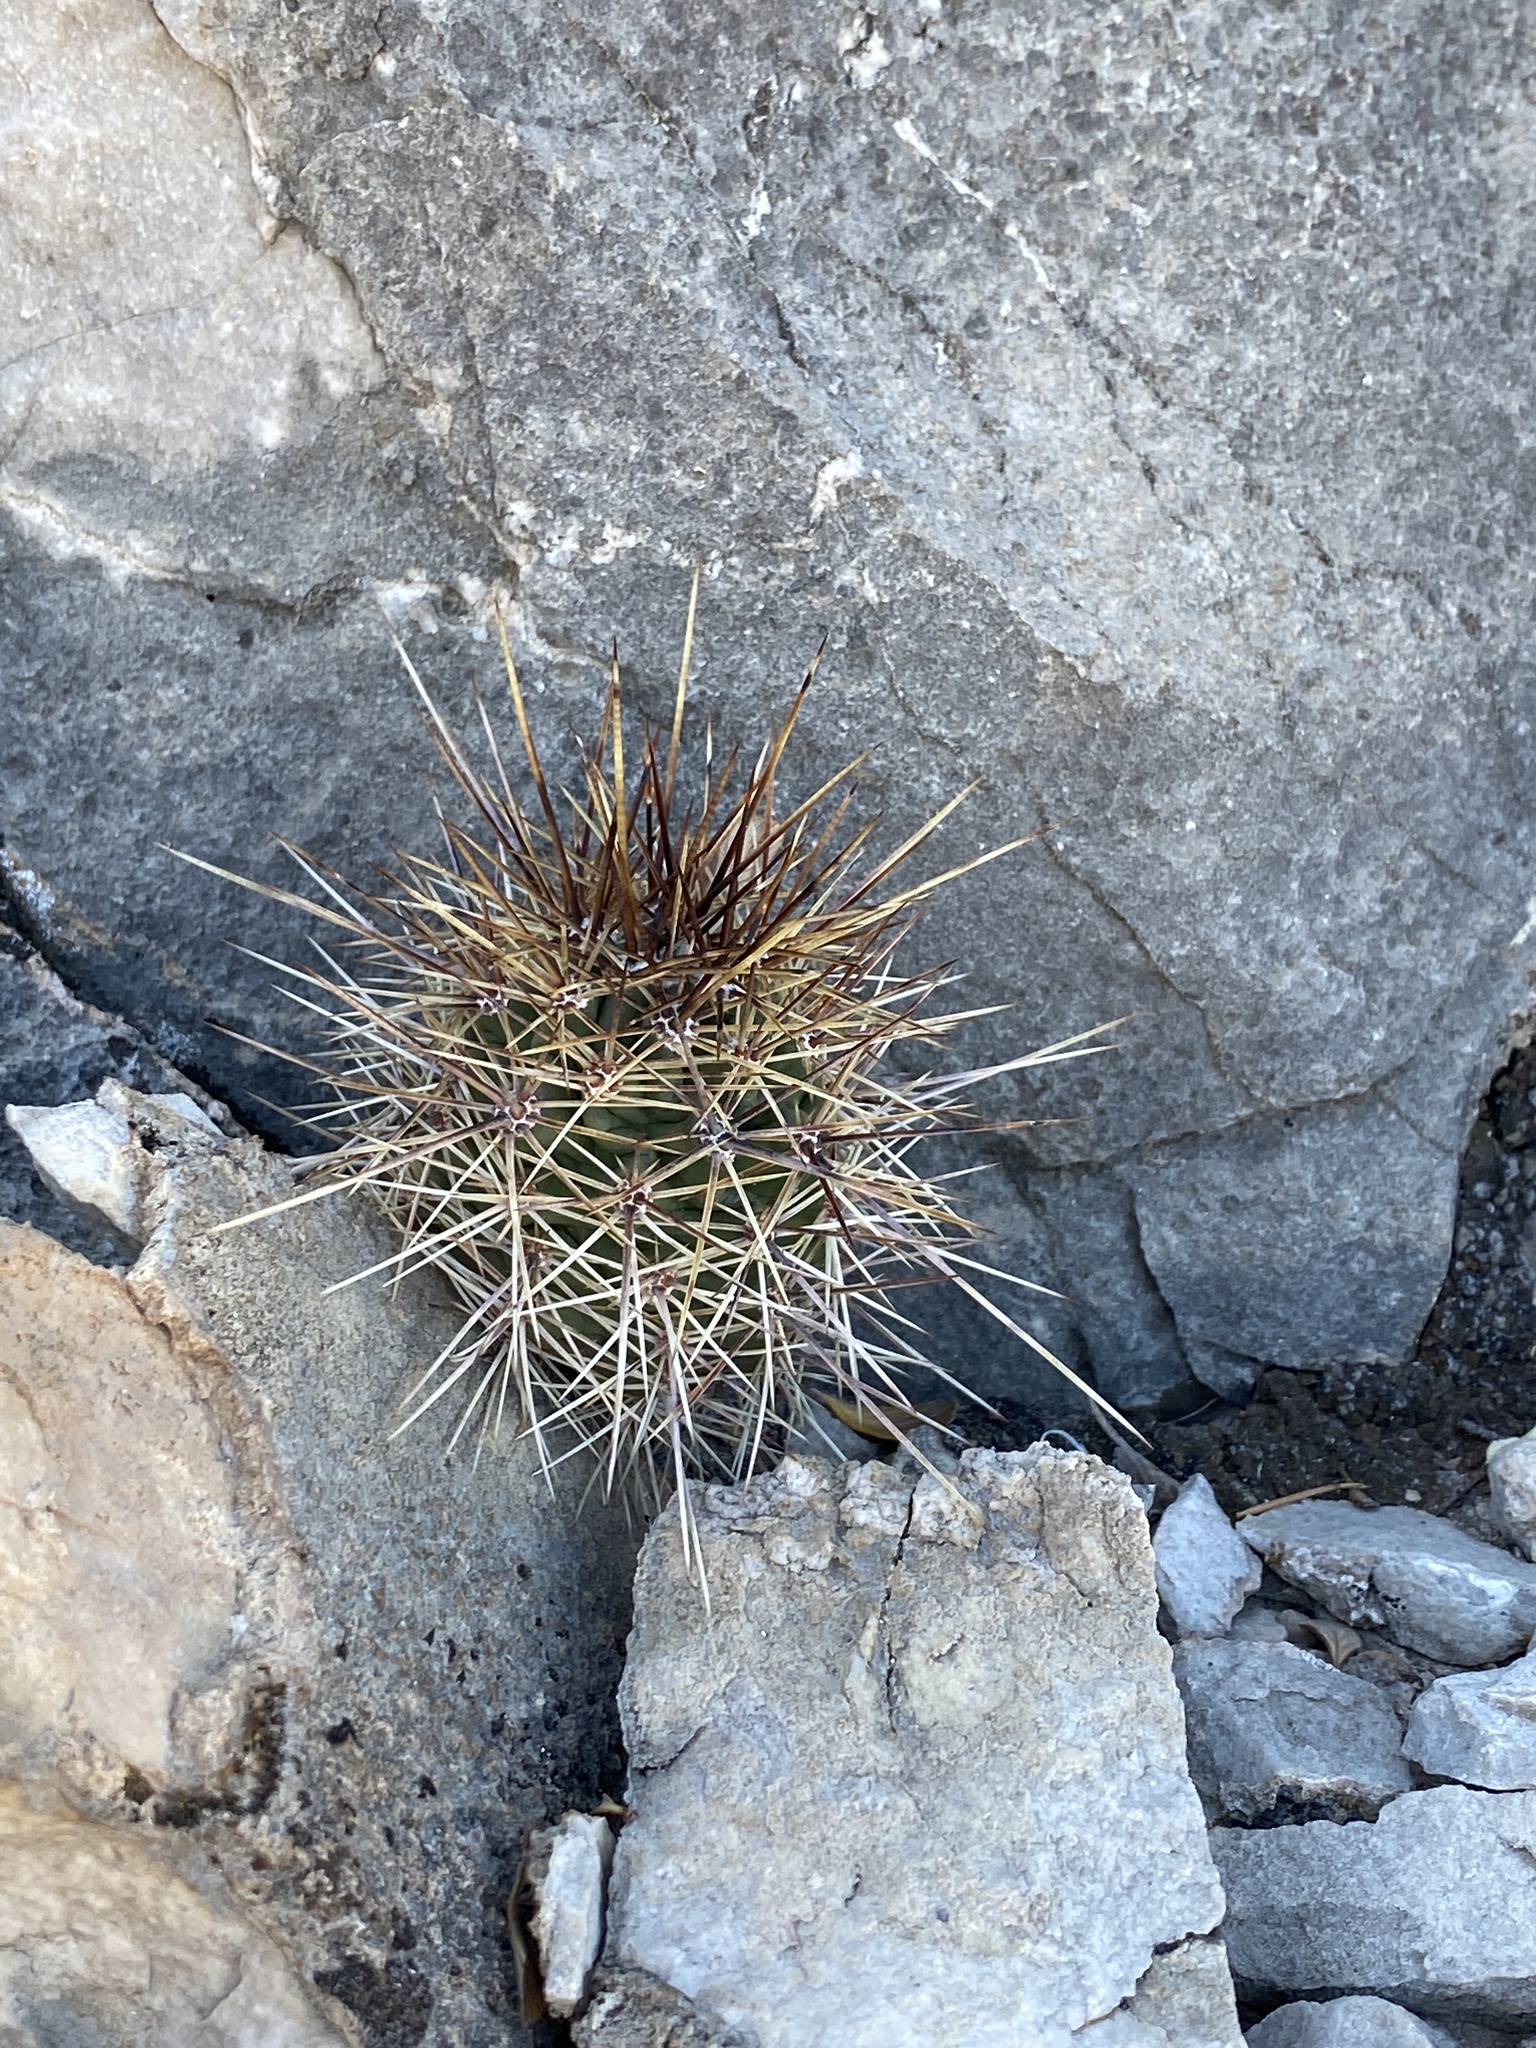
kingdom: Plantae
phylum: Tracheophyta
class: Magnoliopsida
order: Caryophyllales
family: Cactaceae
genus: Echinocereus
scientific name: Echinocereus coccineus
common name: Scarlet hedgehog cactus
